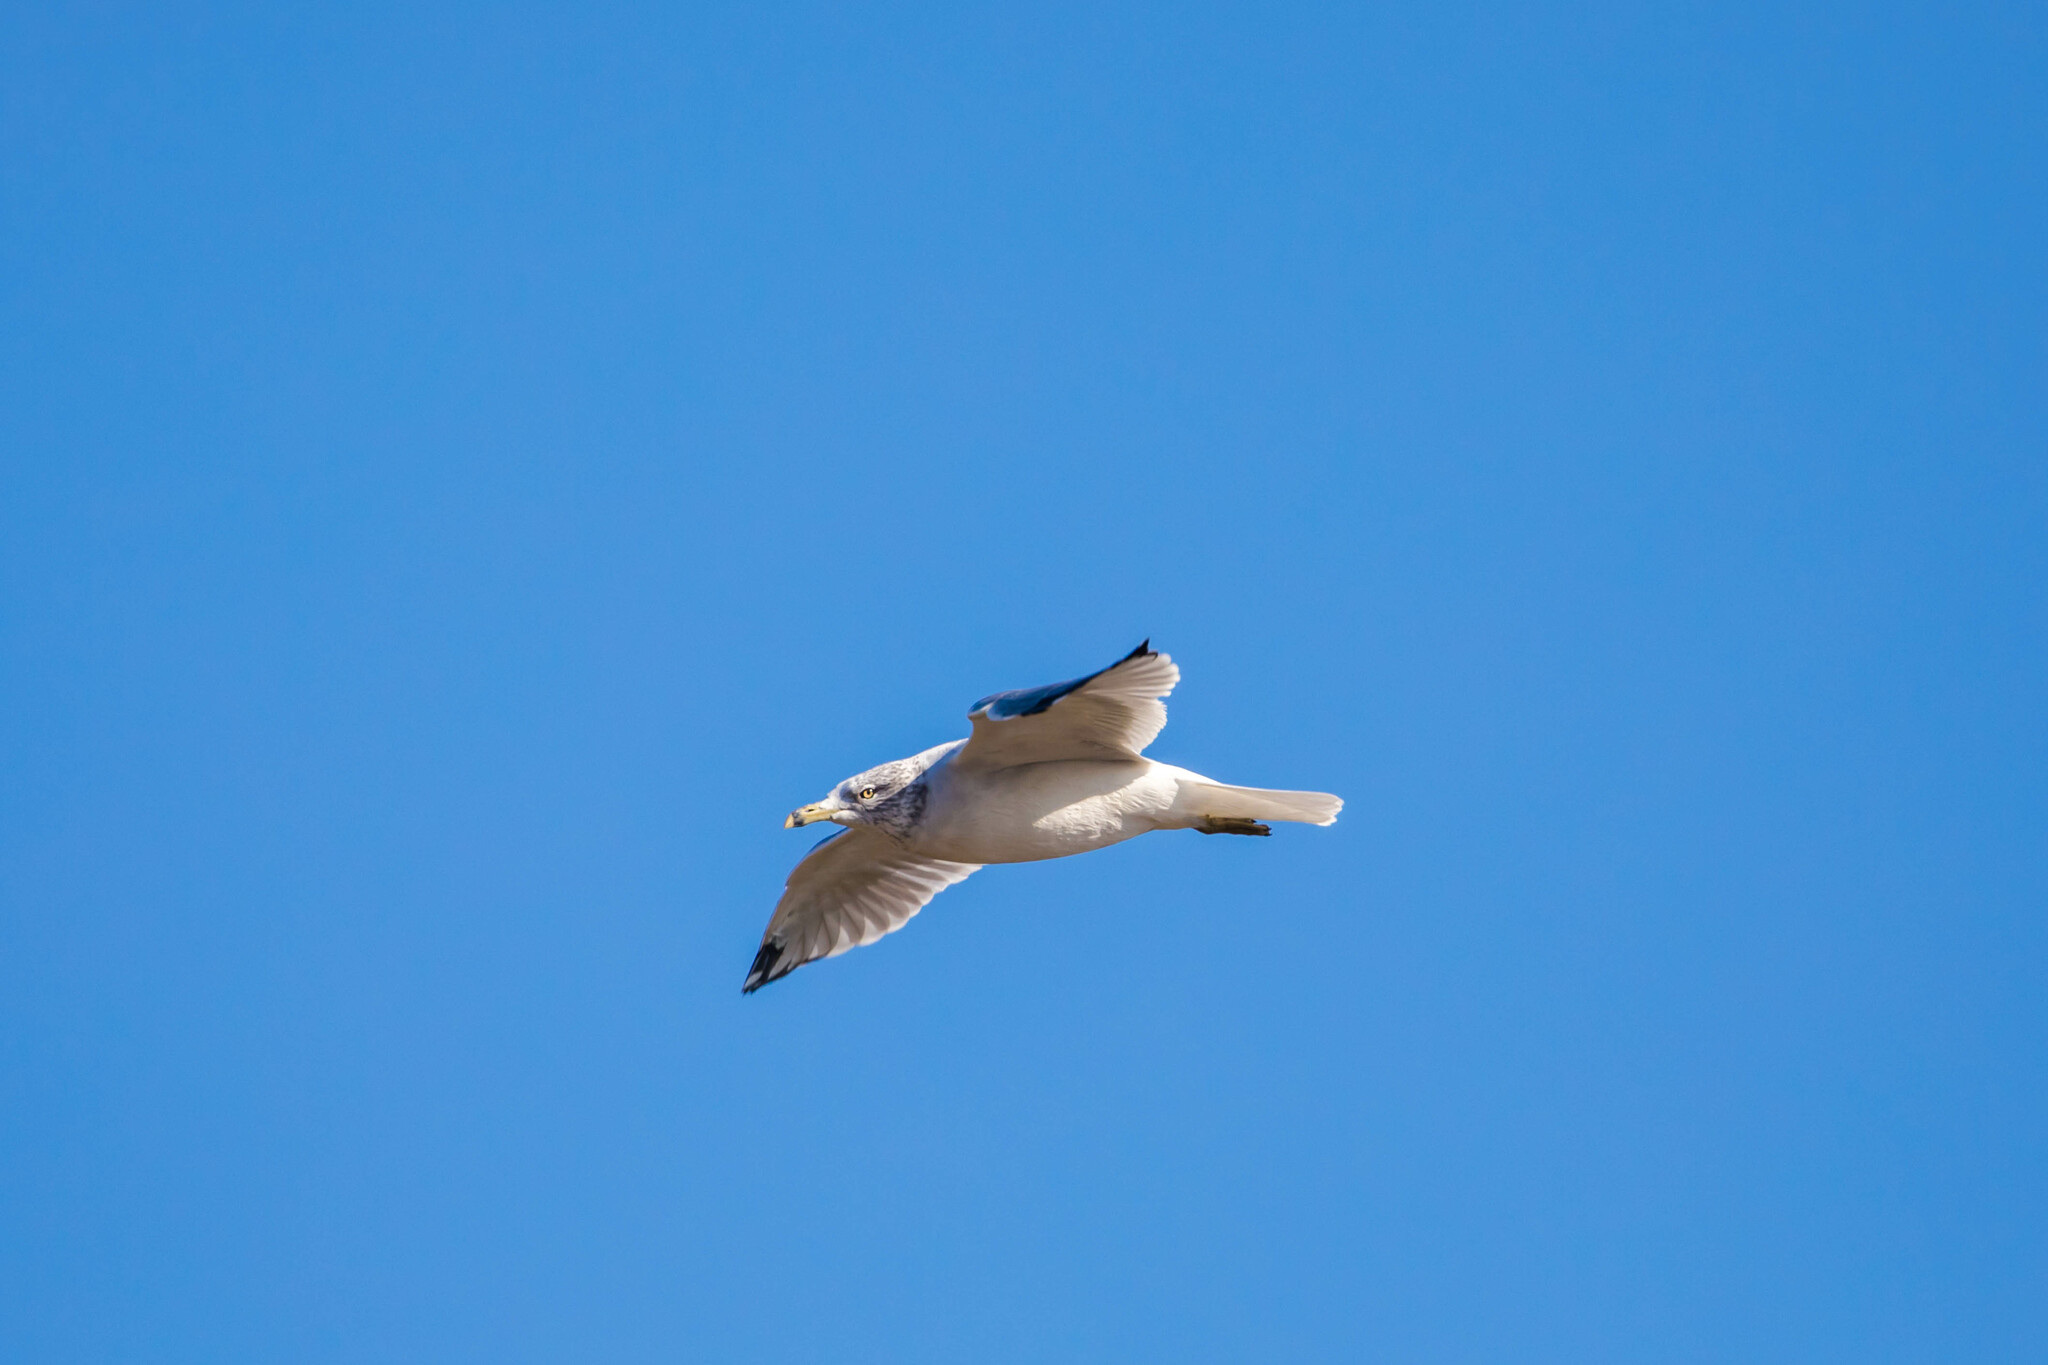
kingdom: Animalia
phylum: Chordata
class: Aves
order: Charadriiformes
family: Laridae
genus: Larus
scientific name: Larus delawarensis
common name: Ring-billed gull
